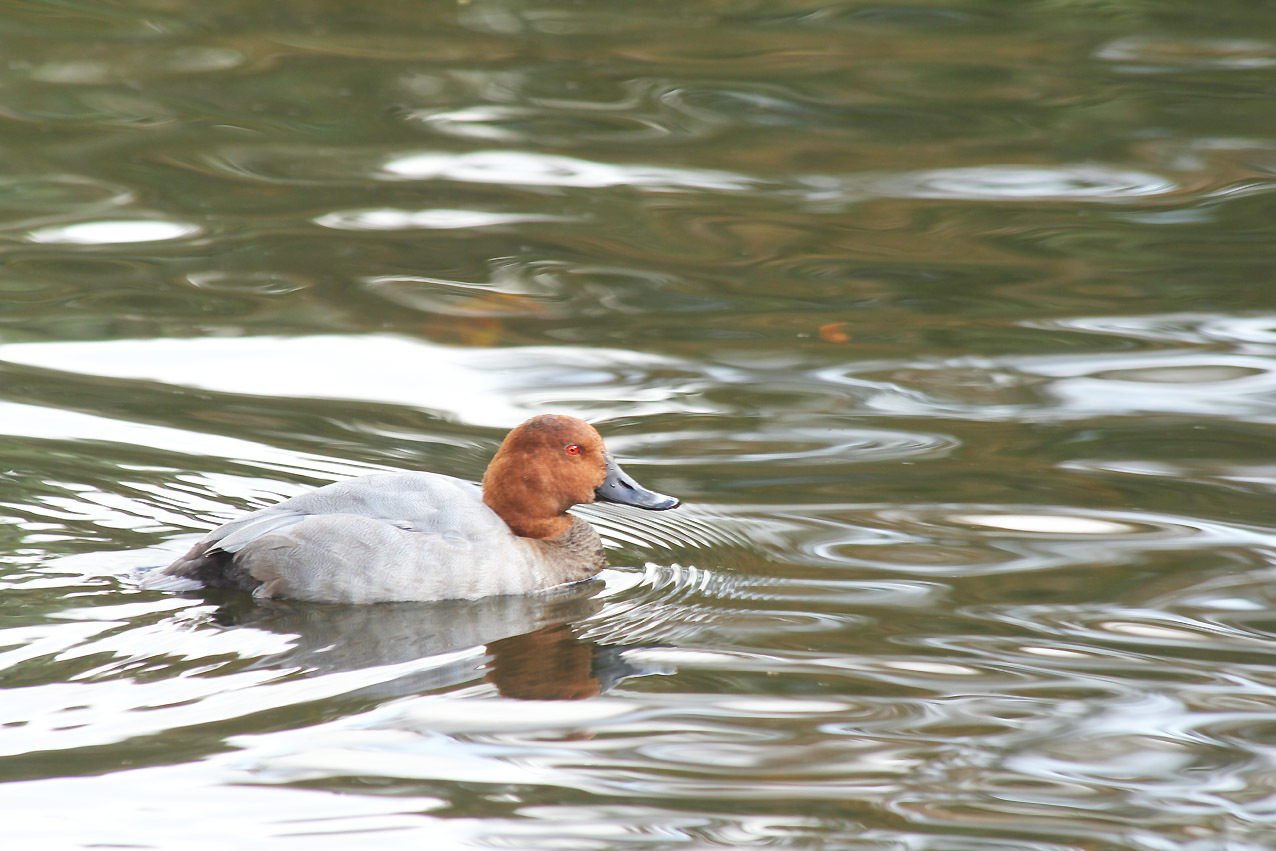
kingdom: Animalia
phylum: Chordata
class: Aves
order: Anseriformes
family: Anatidae
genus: Aythya
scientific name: Aythya ferina
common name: Common pochard
